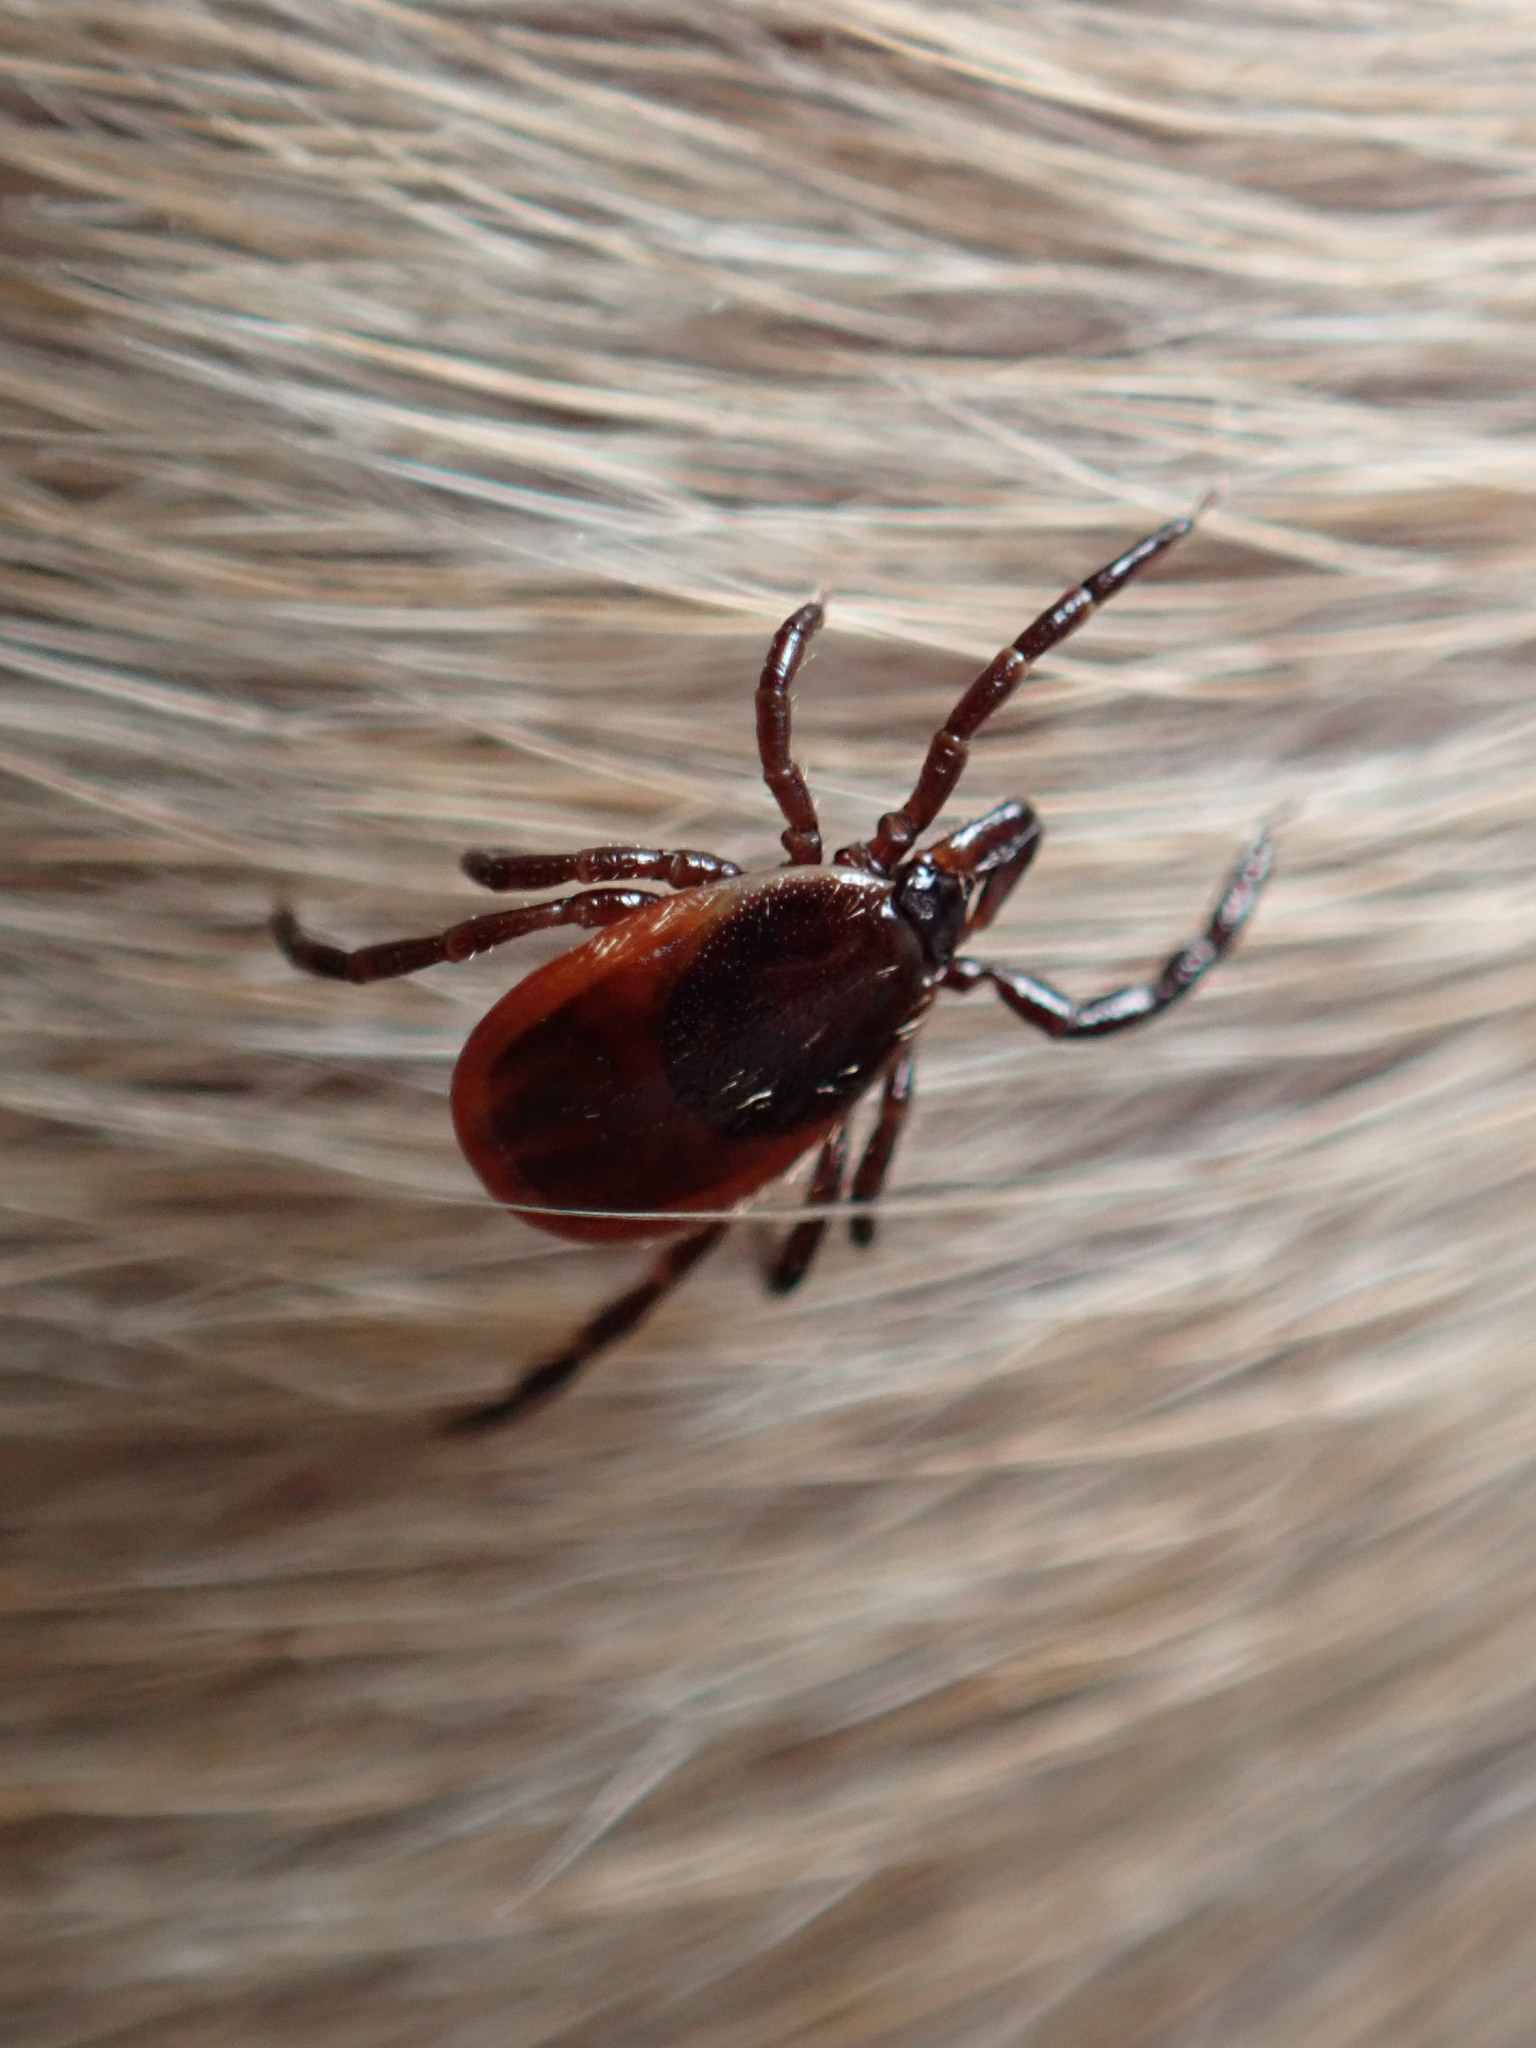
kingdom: Animalia
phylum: Arthropoda
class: Arachnida
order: Ixodida
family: Ixodidae
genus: Ixodes
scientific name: Ixodes scapularis
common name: Black legged tick
